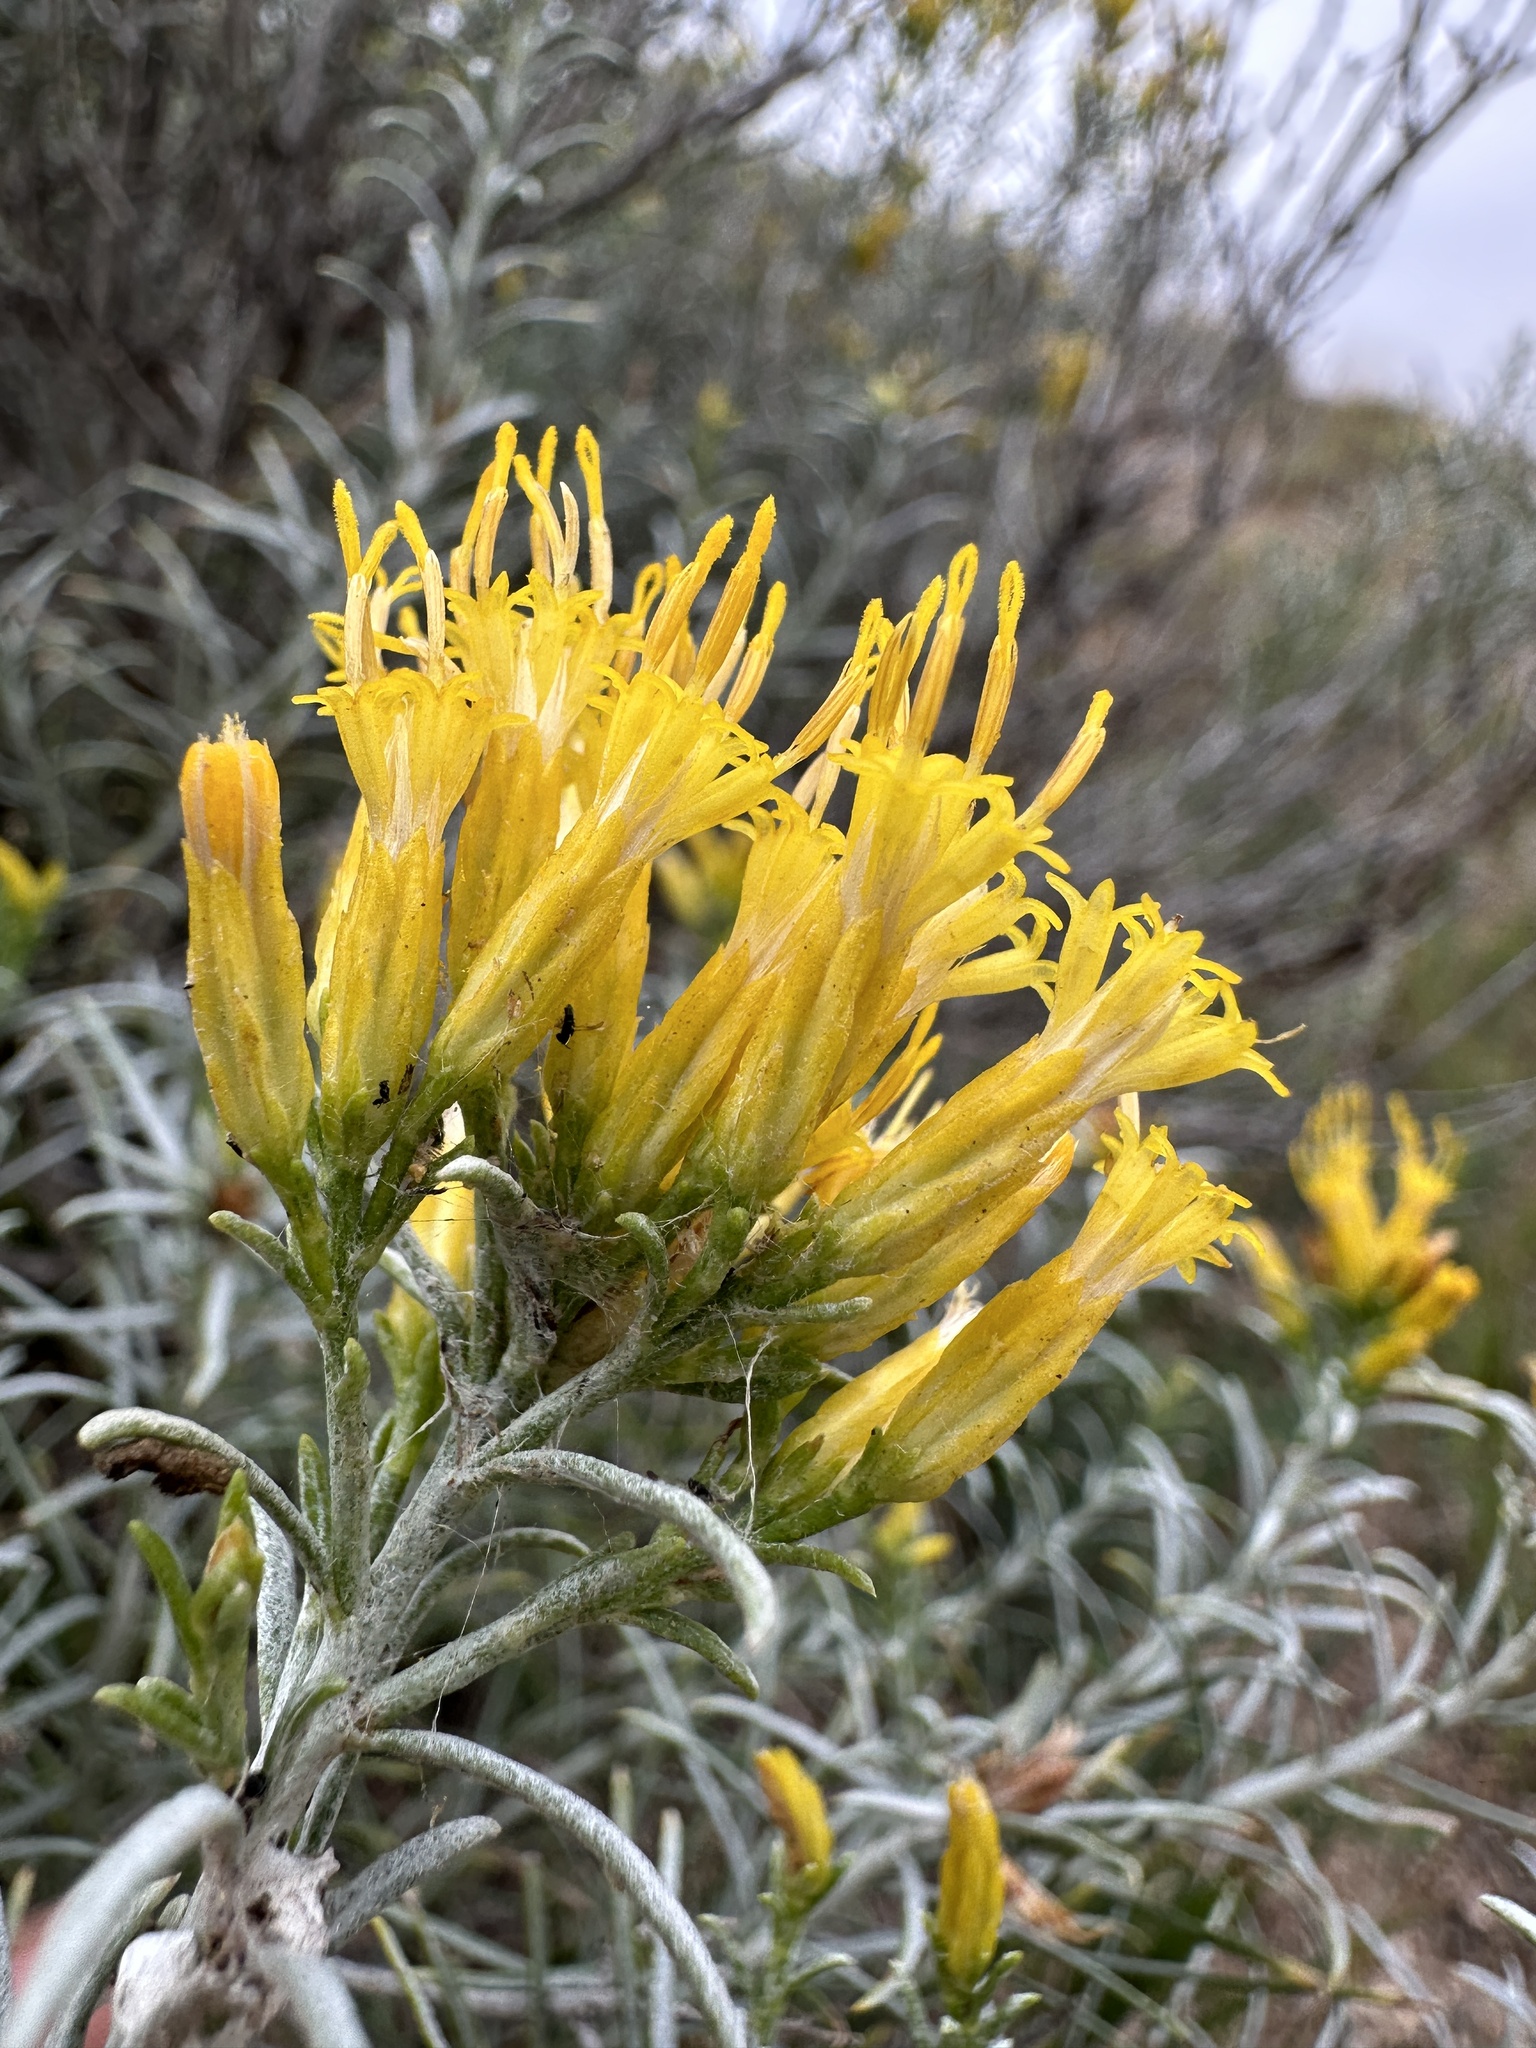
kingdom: Plantae
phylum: Tracheophyta
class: Magnoliopsida
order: Asterales
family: Asteraceae
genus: Ericameria
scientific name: Ericameria nauseosa
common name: Rubber rabbitbrush
